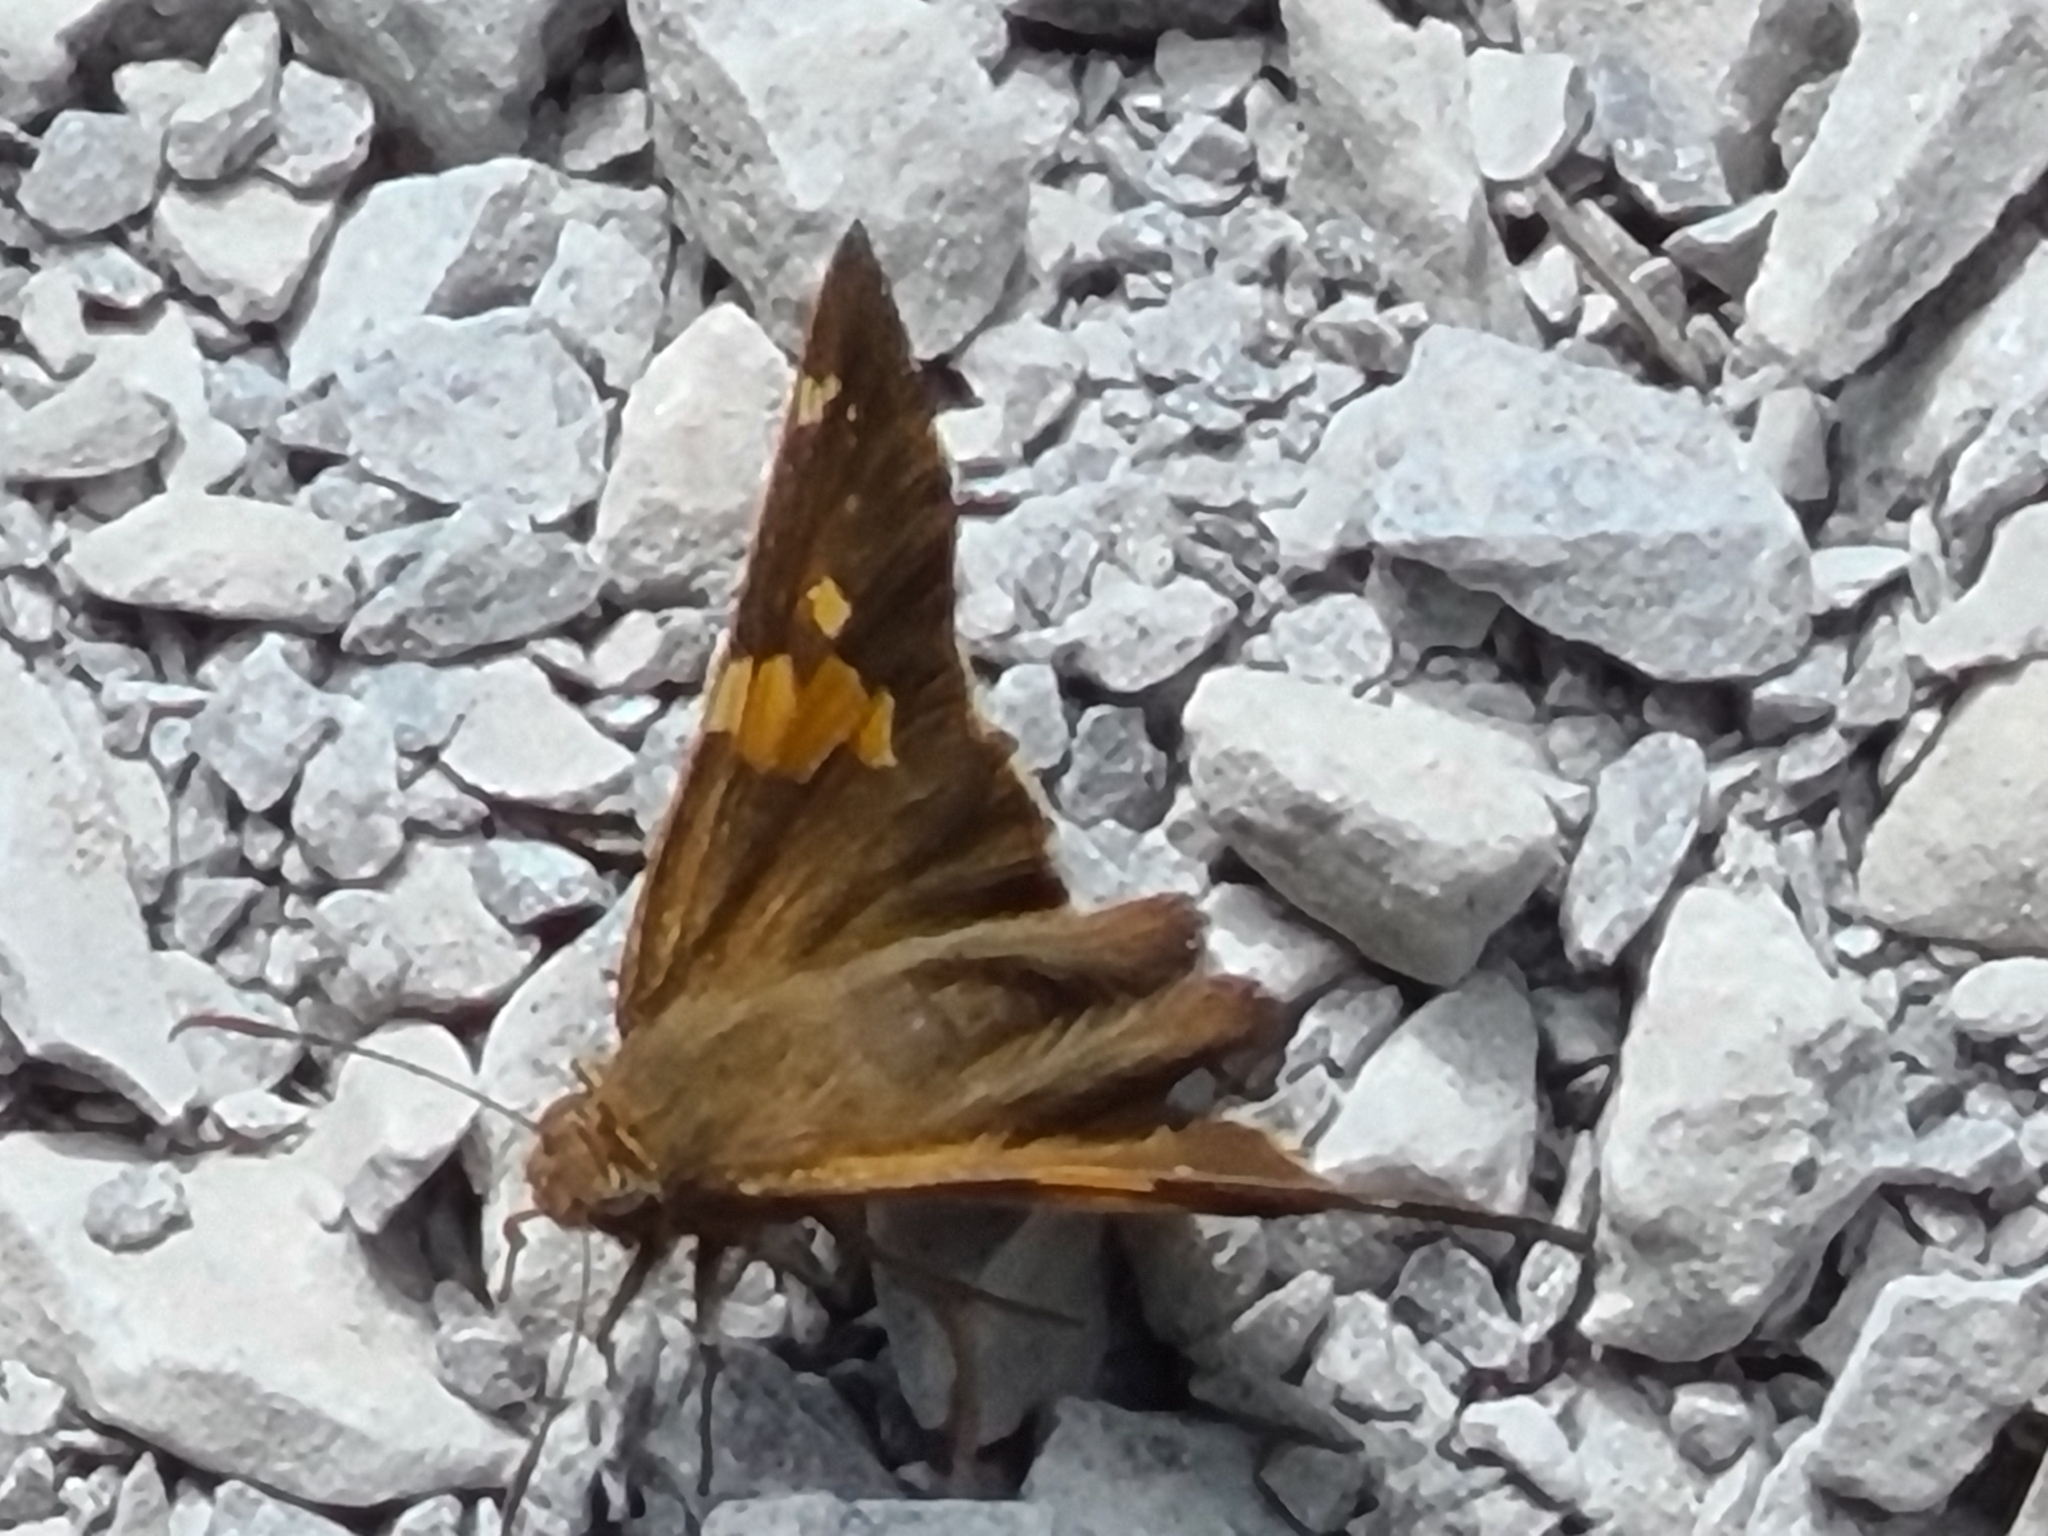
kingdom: Animalia
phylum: Arthropoda
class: Insecta
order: Lepidoptera
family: Hesperiidae
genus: Epargyreus
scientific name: Epargyreus clarus
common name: Silver-spotted skipper
